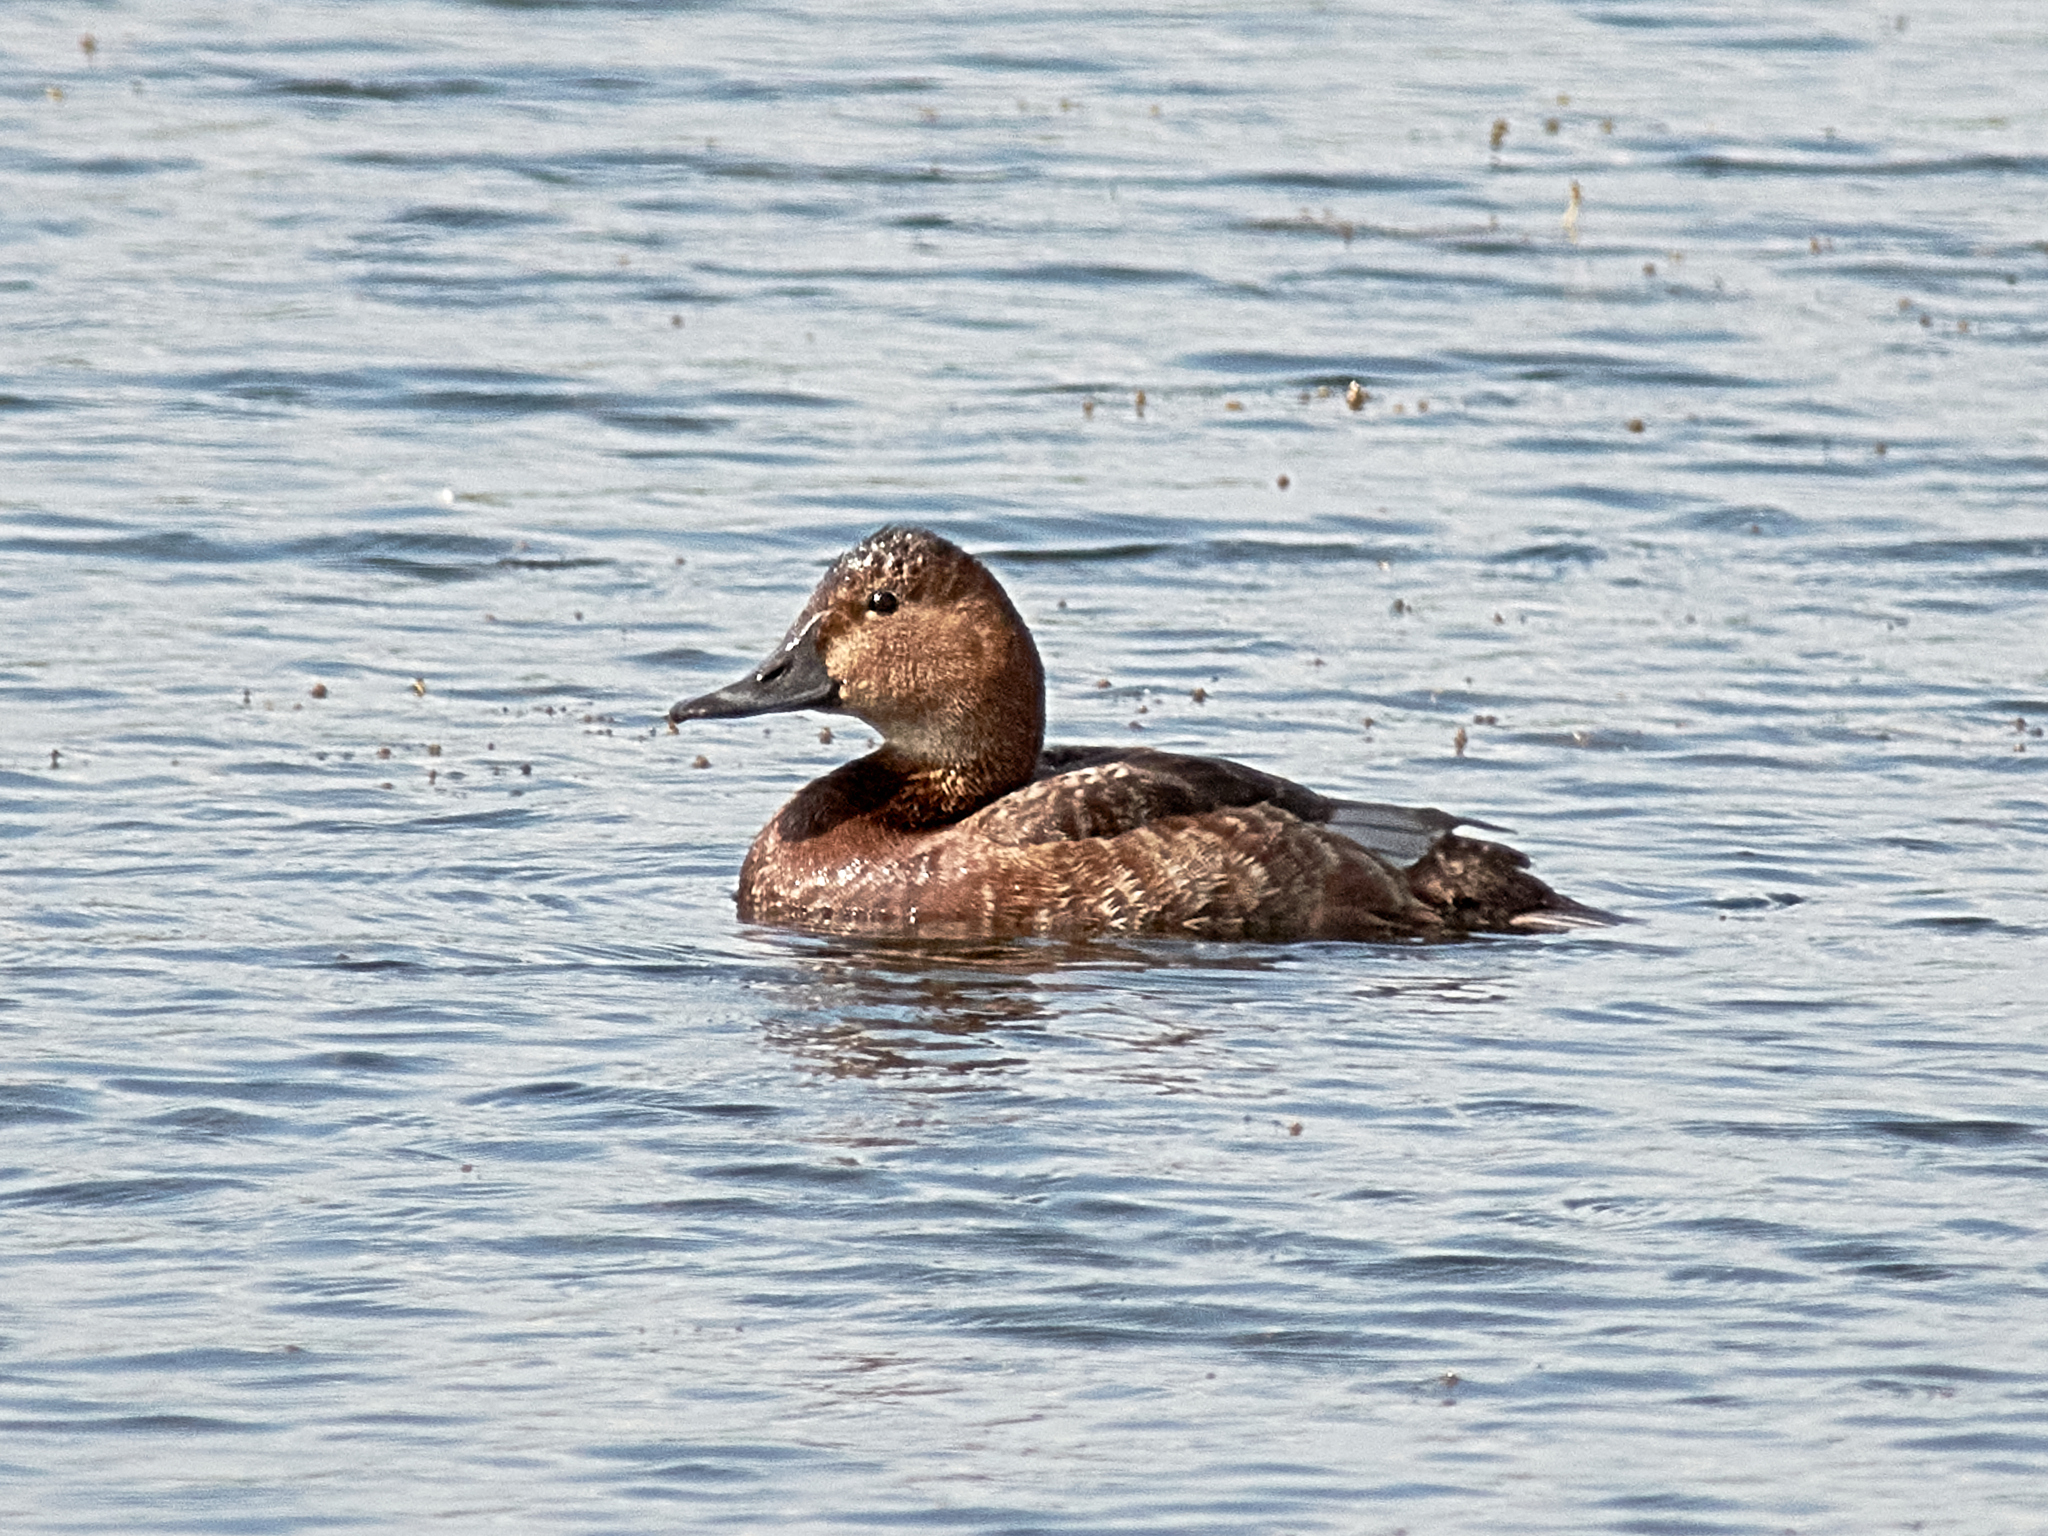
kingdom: Animalia
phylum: Chordata
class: Aves
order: Anseriformes
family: Anatidae
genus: Aythya
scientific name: Aythya ferina
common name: Common pochard
